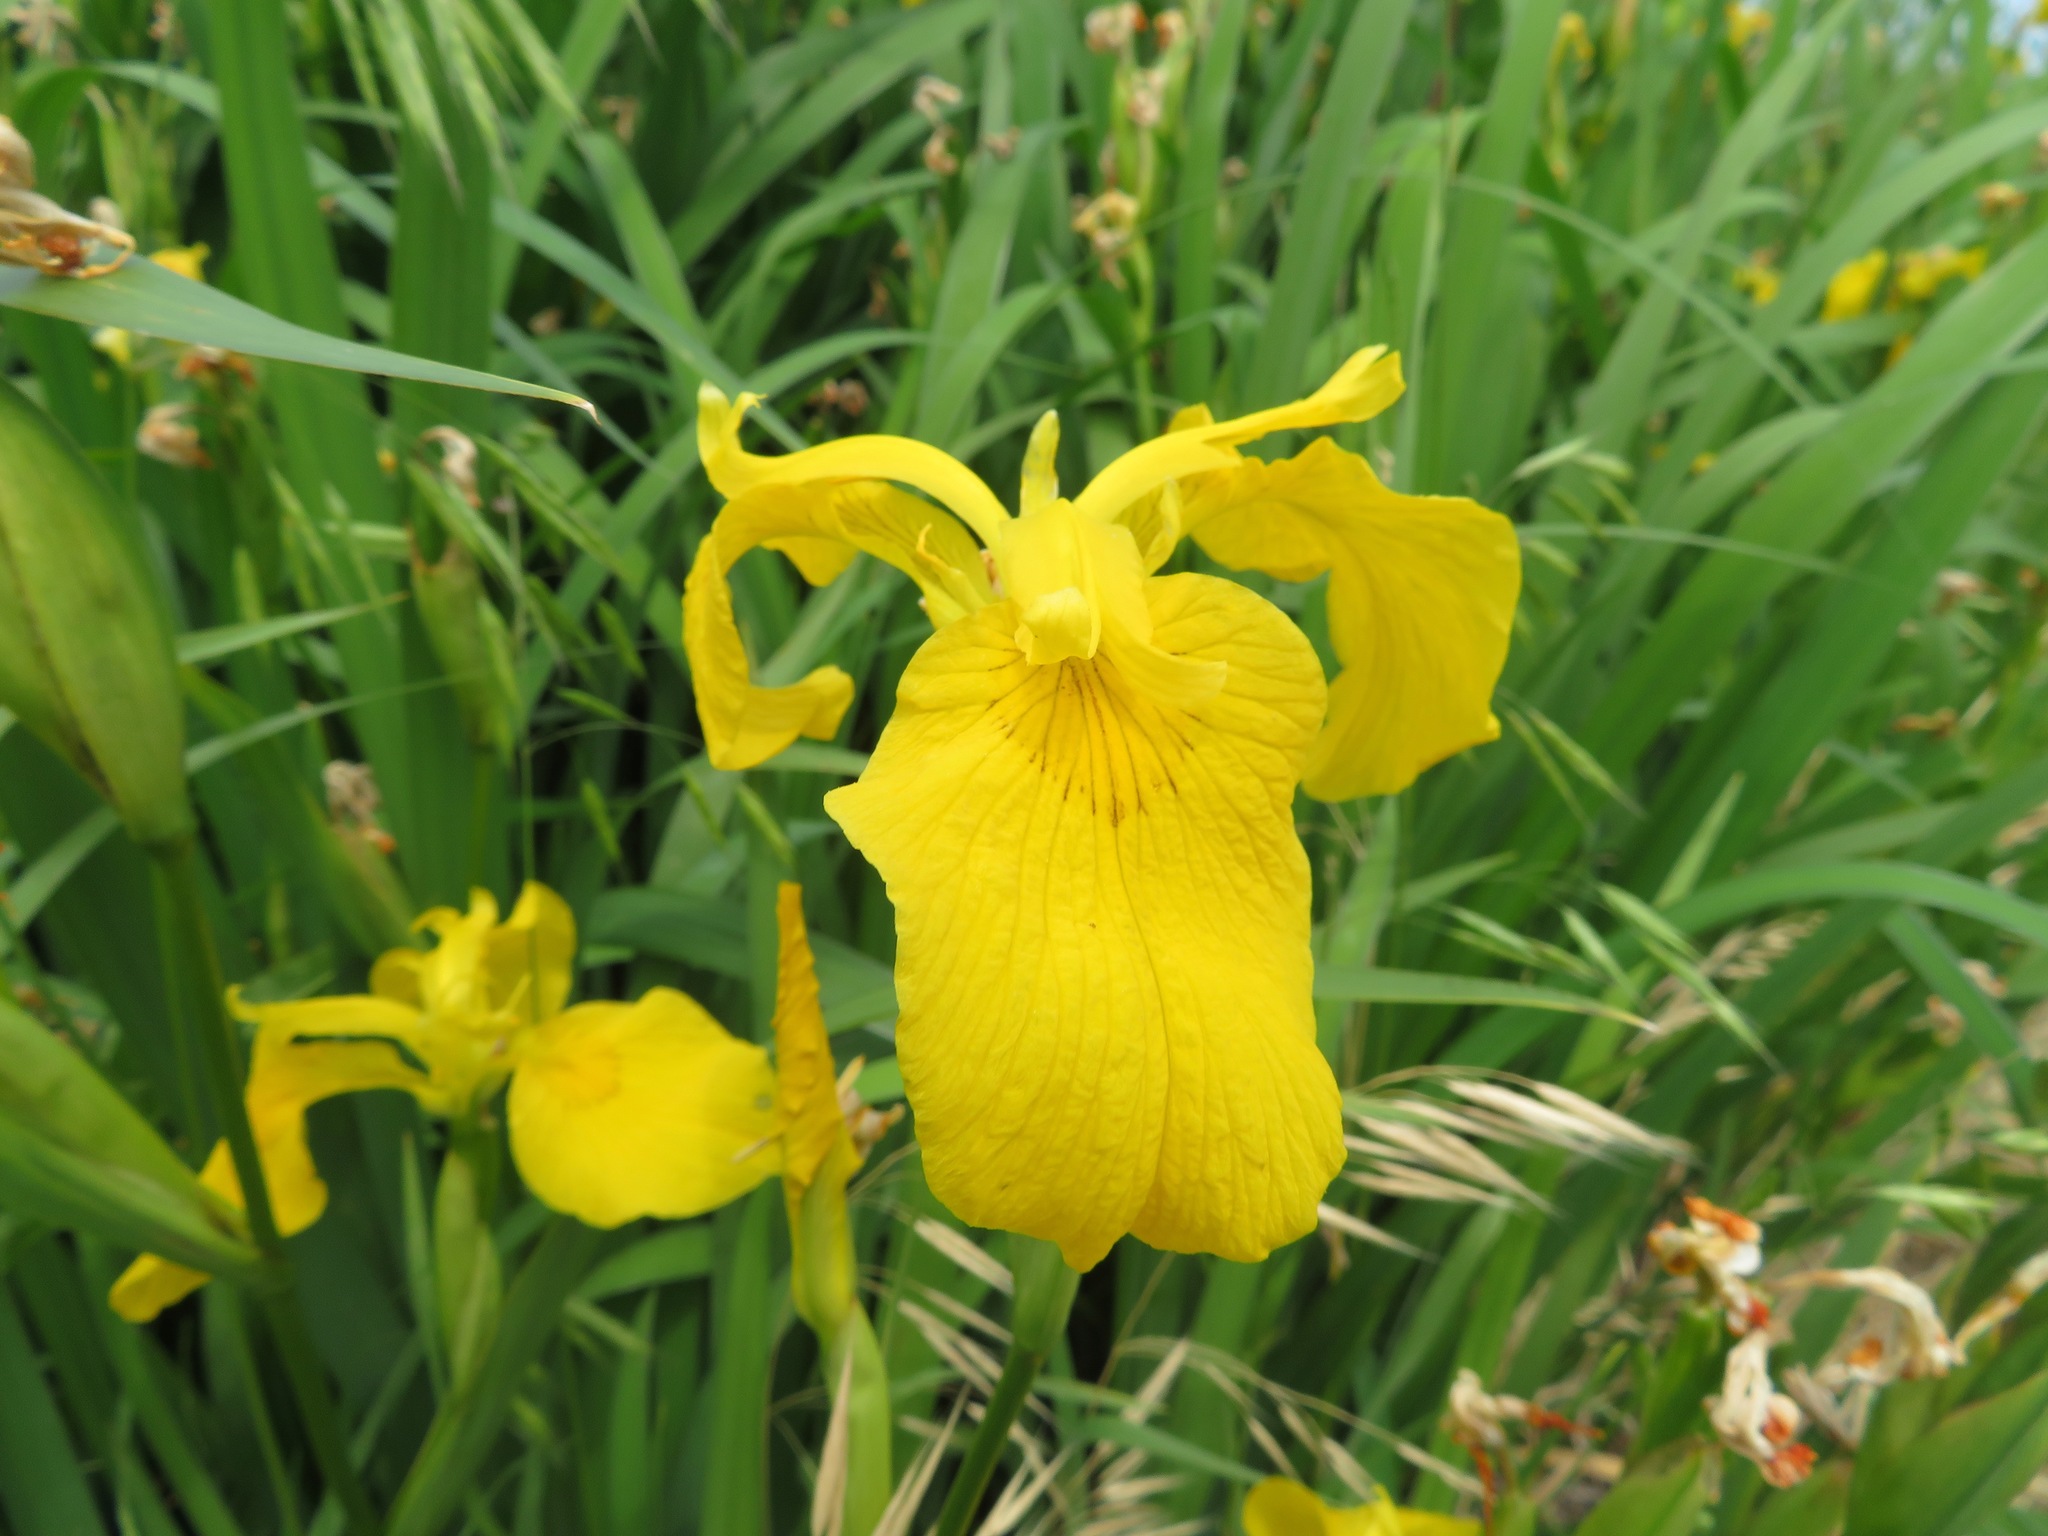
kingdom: Plantae
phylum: Tracheophyta
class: Liliopsida
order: Asparagales
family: Iridaceae
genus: Iris
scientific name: Iris pseudacorus
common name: Yellow flag
